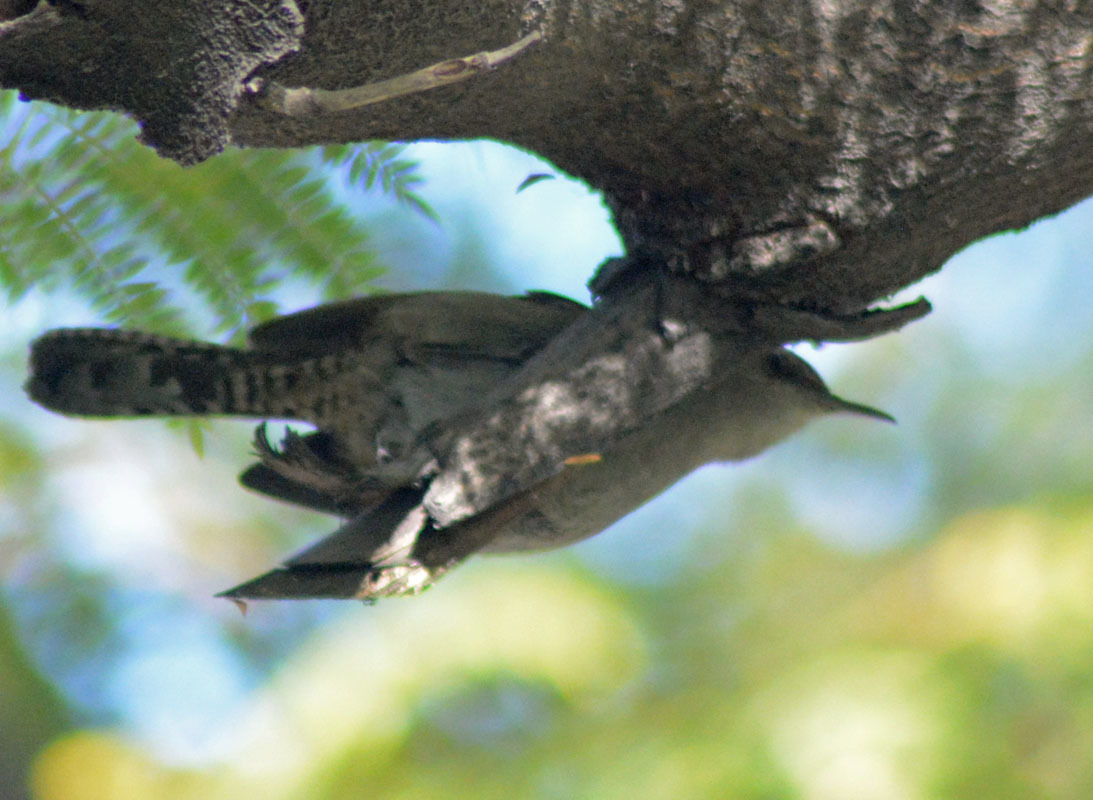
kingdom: Animalia
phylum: Chordata
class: Aves
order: Passeriformes
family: Troglodytidae
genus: Thryomanes
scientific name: Thryomanes bewickii
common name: Bewick's wren
